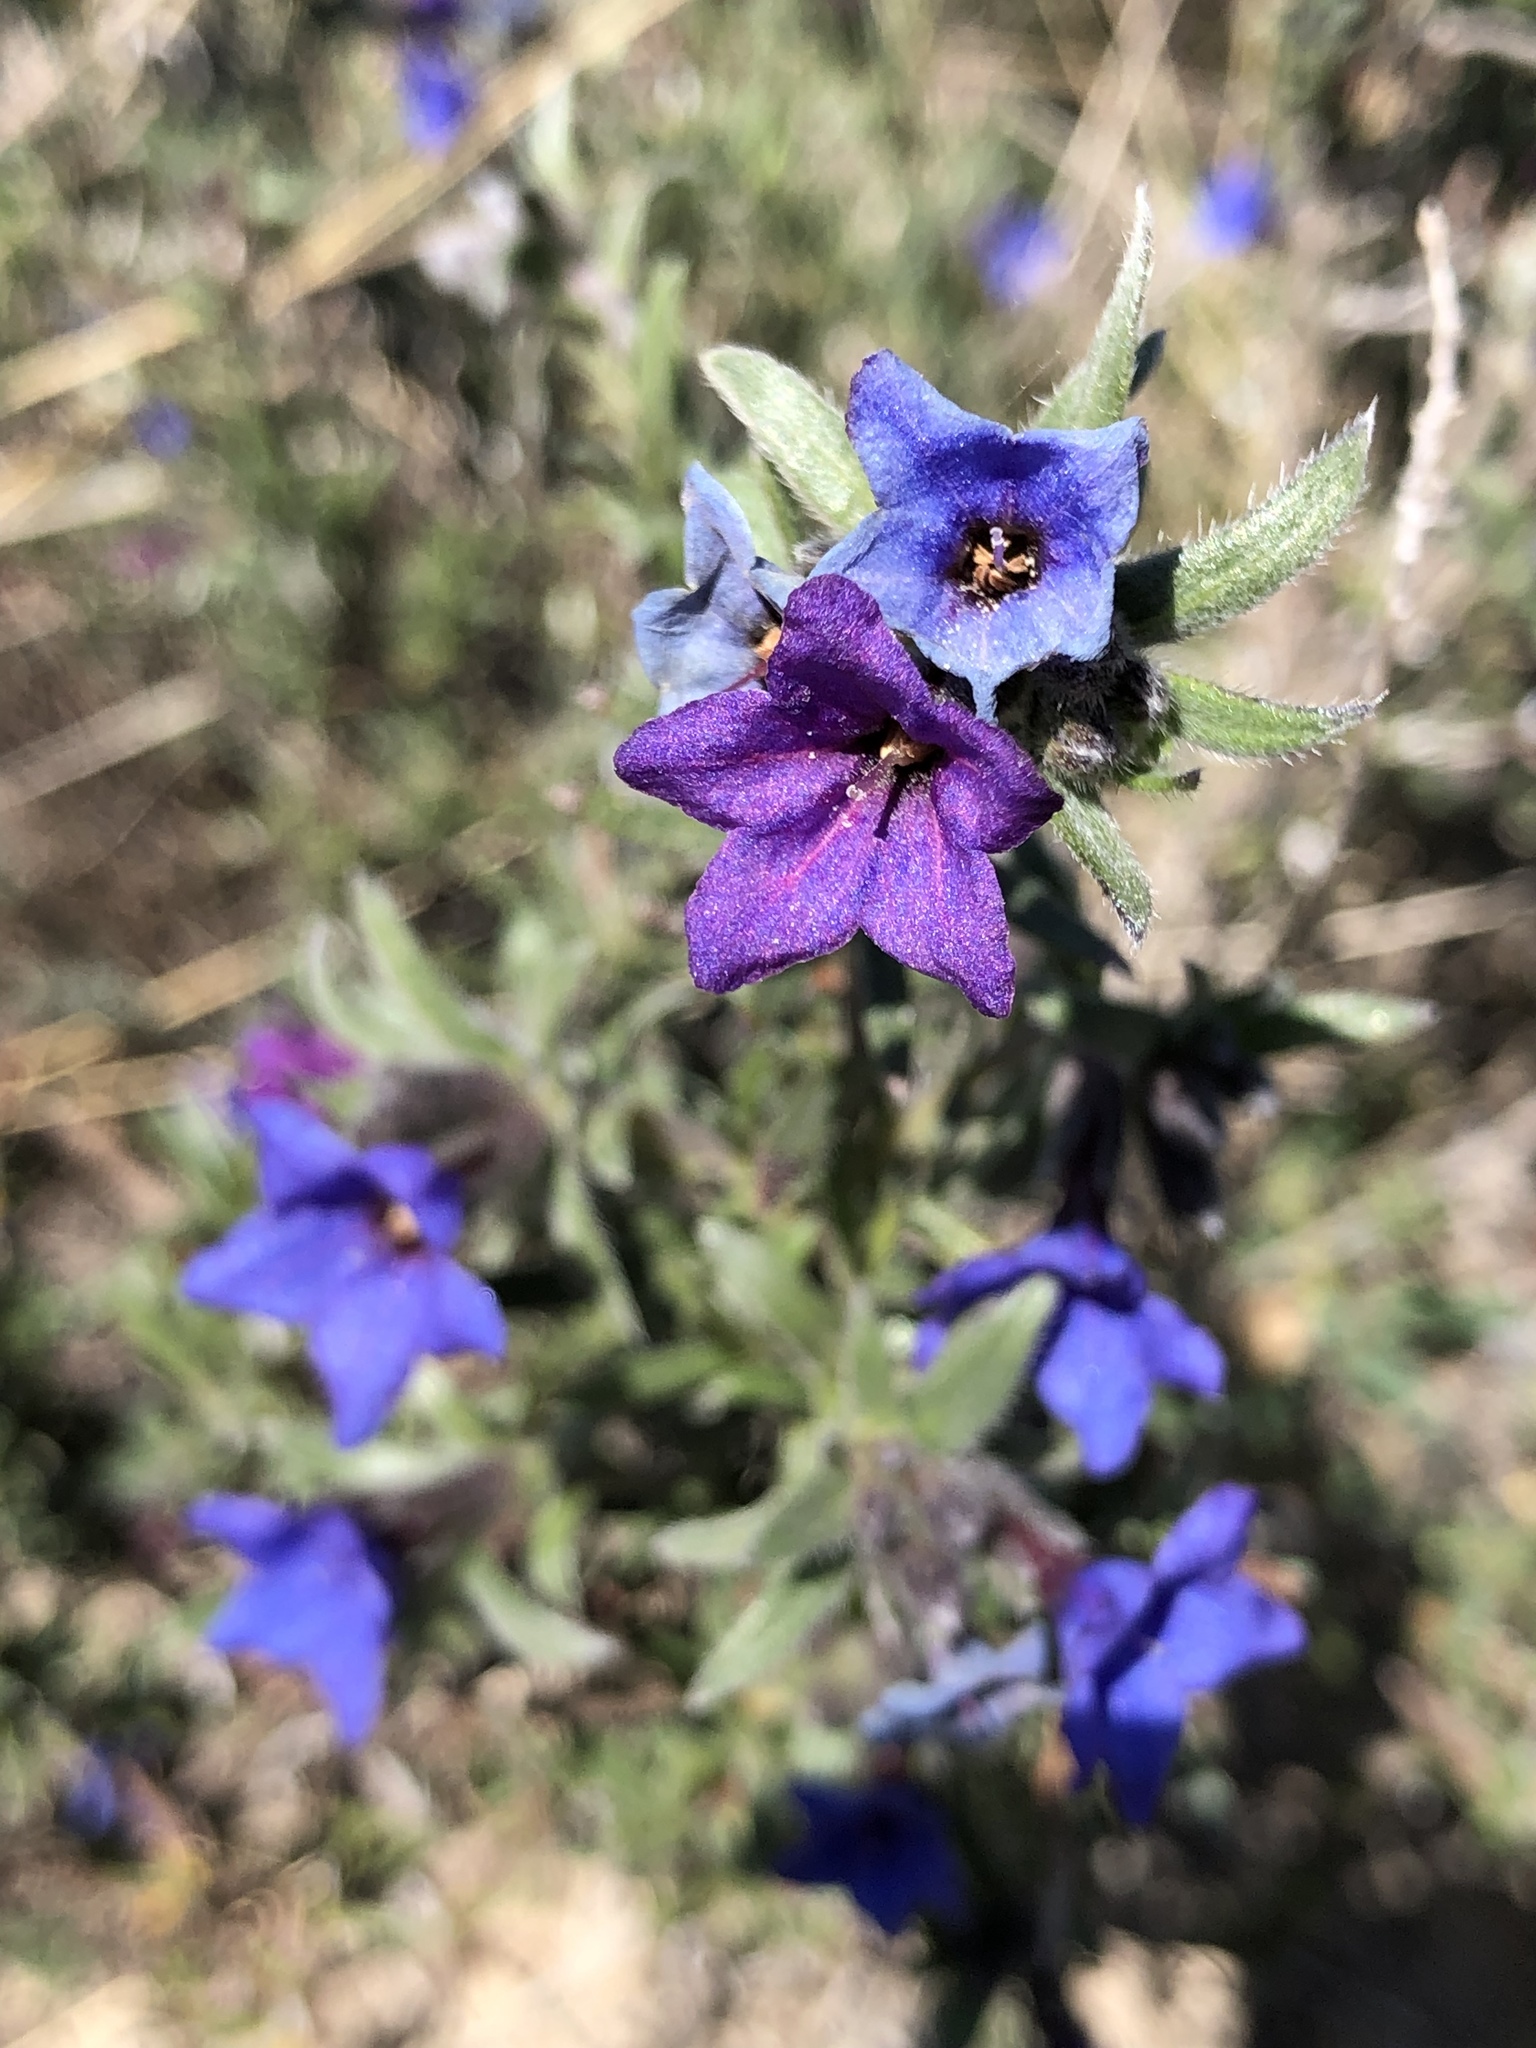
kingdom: Plantae
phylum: Tracheophyta
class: Magnoliopsida
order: Boraginales
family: Boraginaceae
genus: Glandora
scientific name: Glandora prostrata
